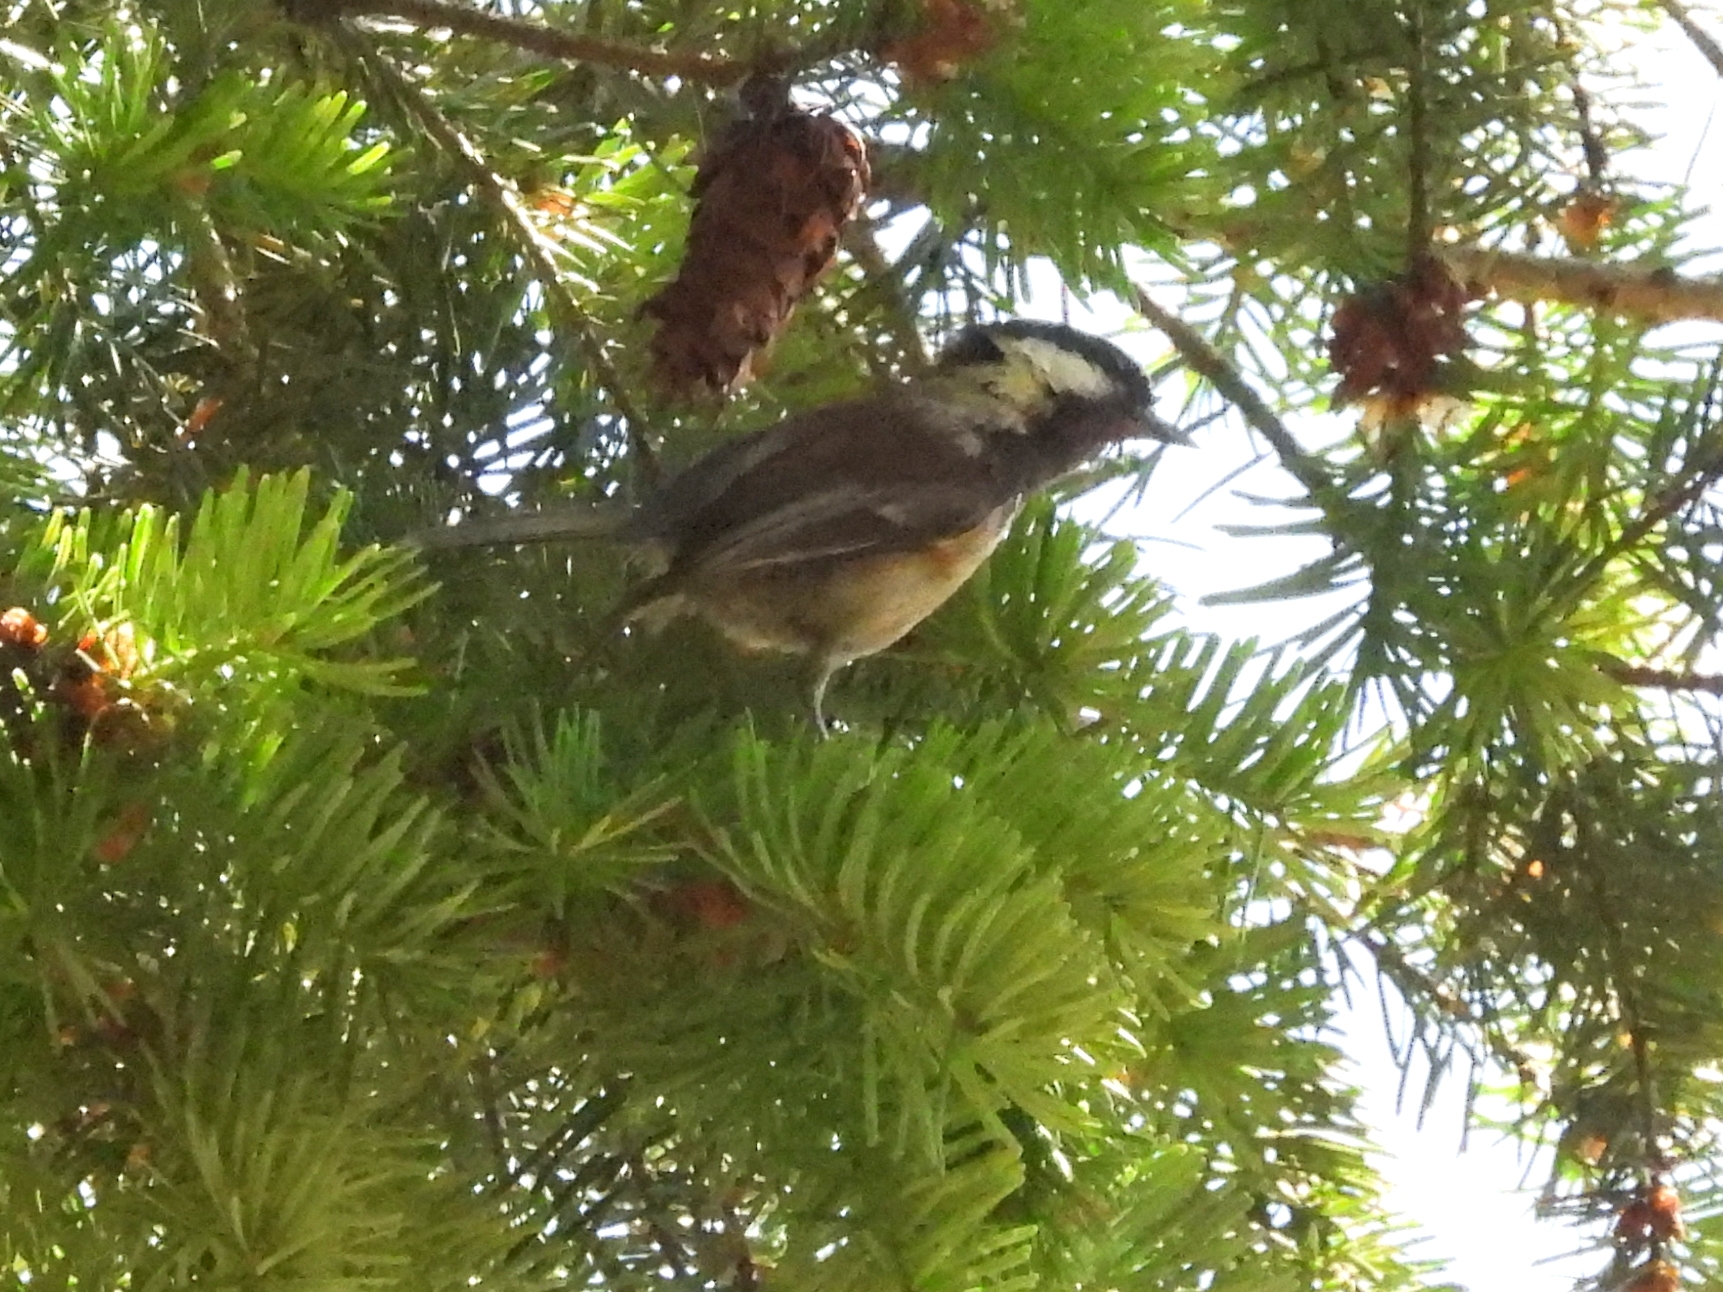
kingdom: Animalia
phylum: Chordata
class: Aves
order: Passeriformes
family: Paridae
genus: Poecile
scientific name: Poecile rufescens
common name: Chestnut-backed chickadee
